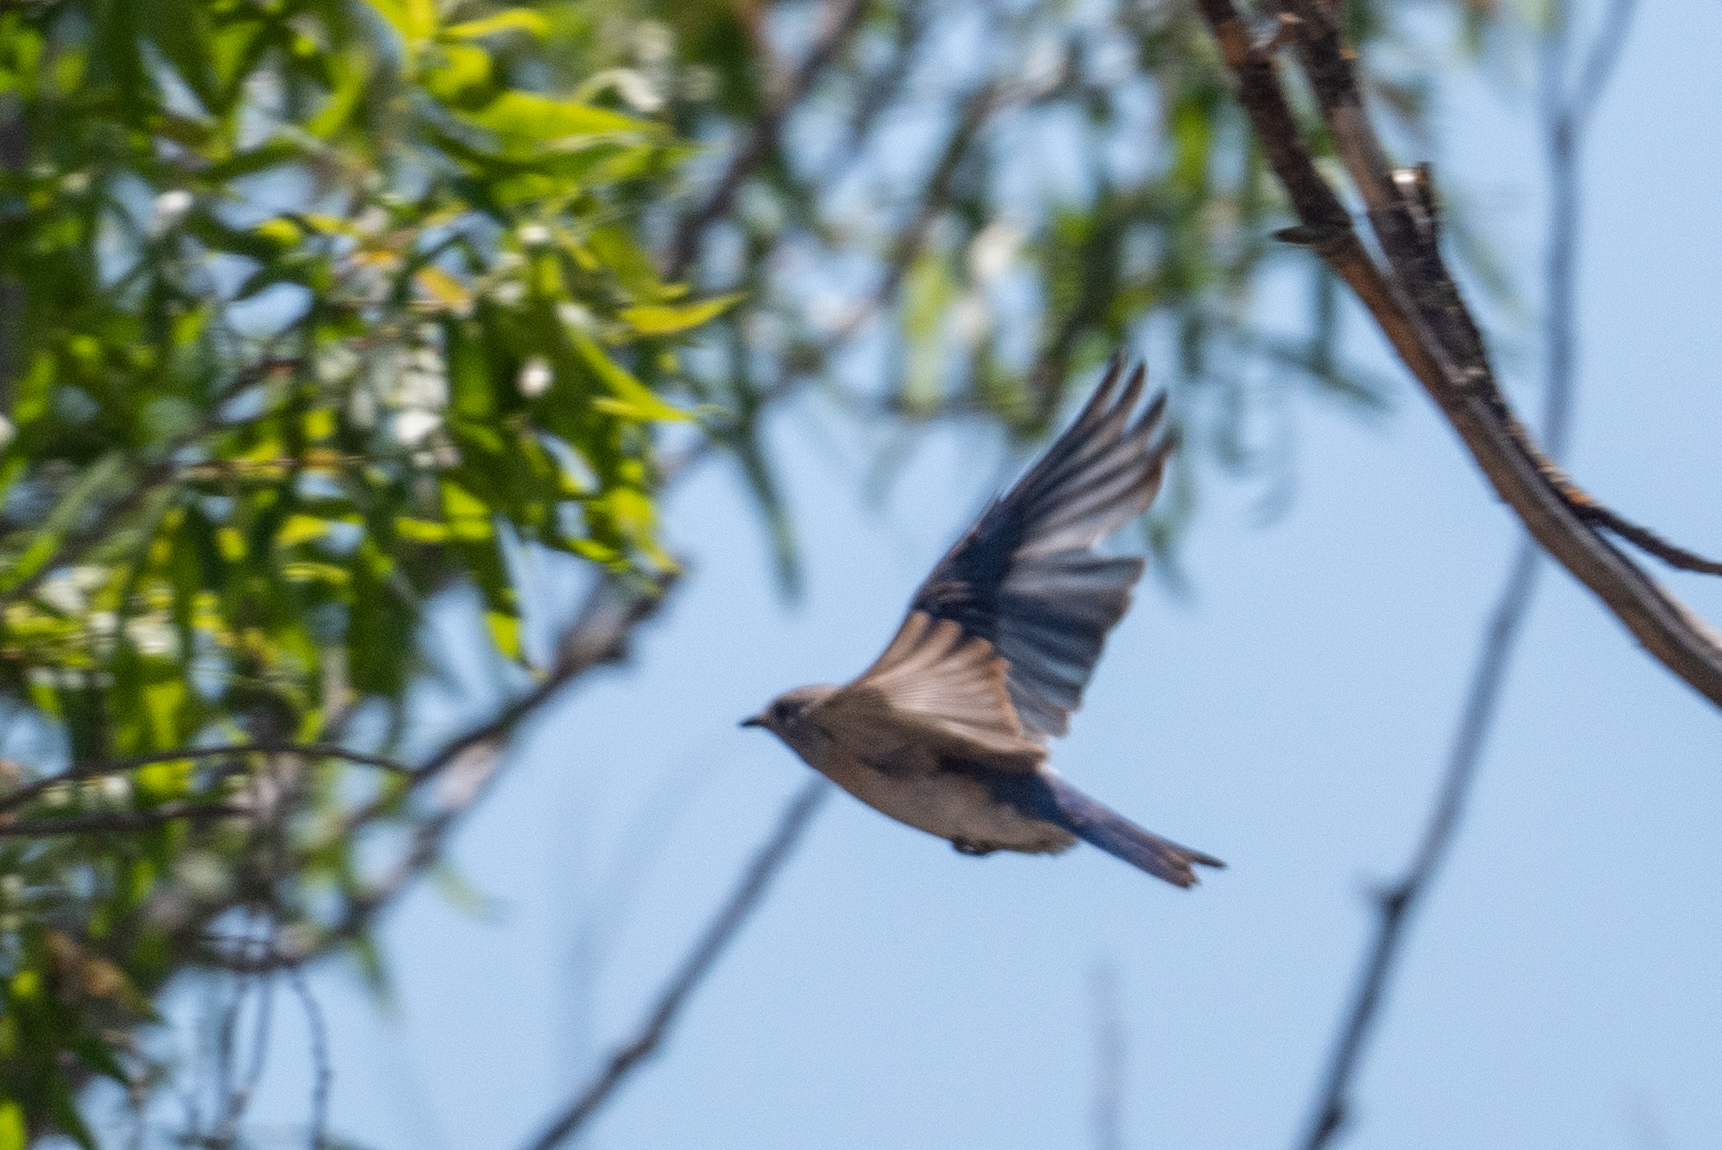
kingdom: Animalia
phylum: Chordata
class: Aves
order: Passeriformes
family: Turdidae
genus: Sialia
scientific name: Sialia mexicana
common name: Western bluebird
